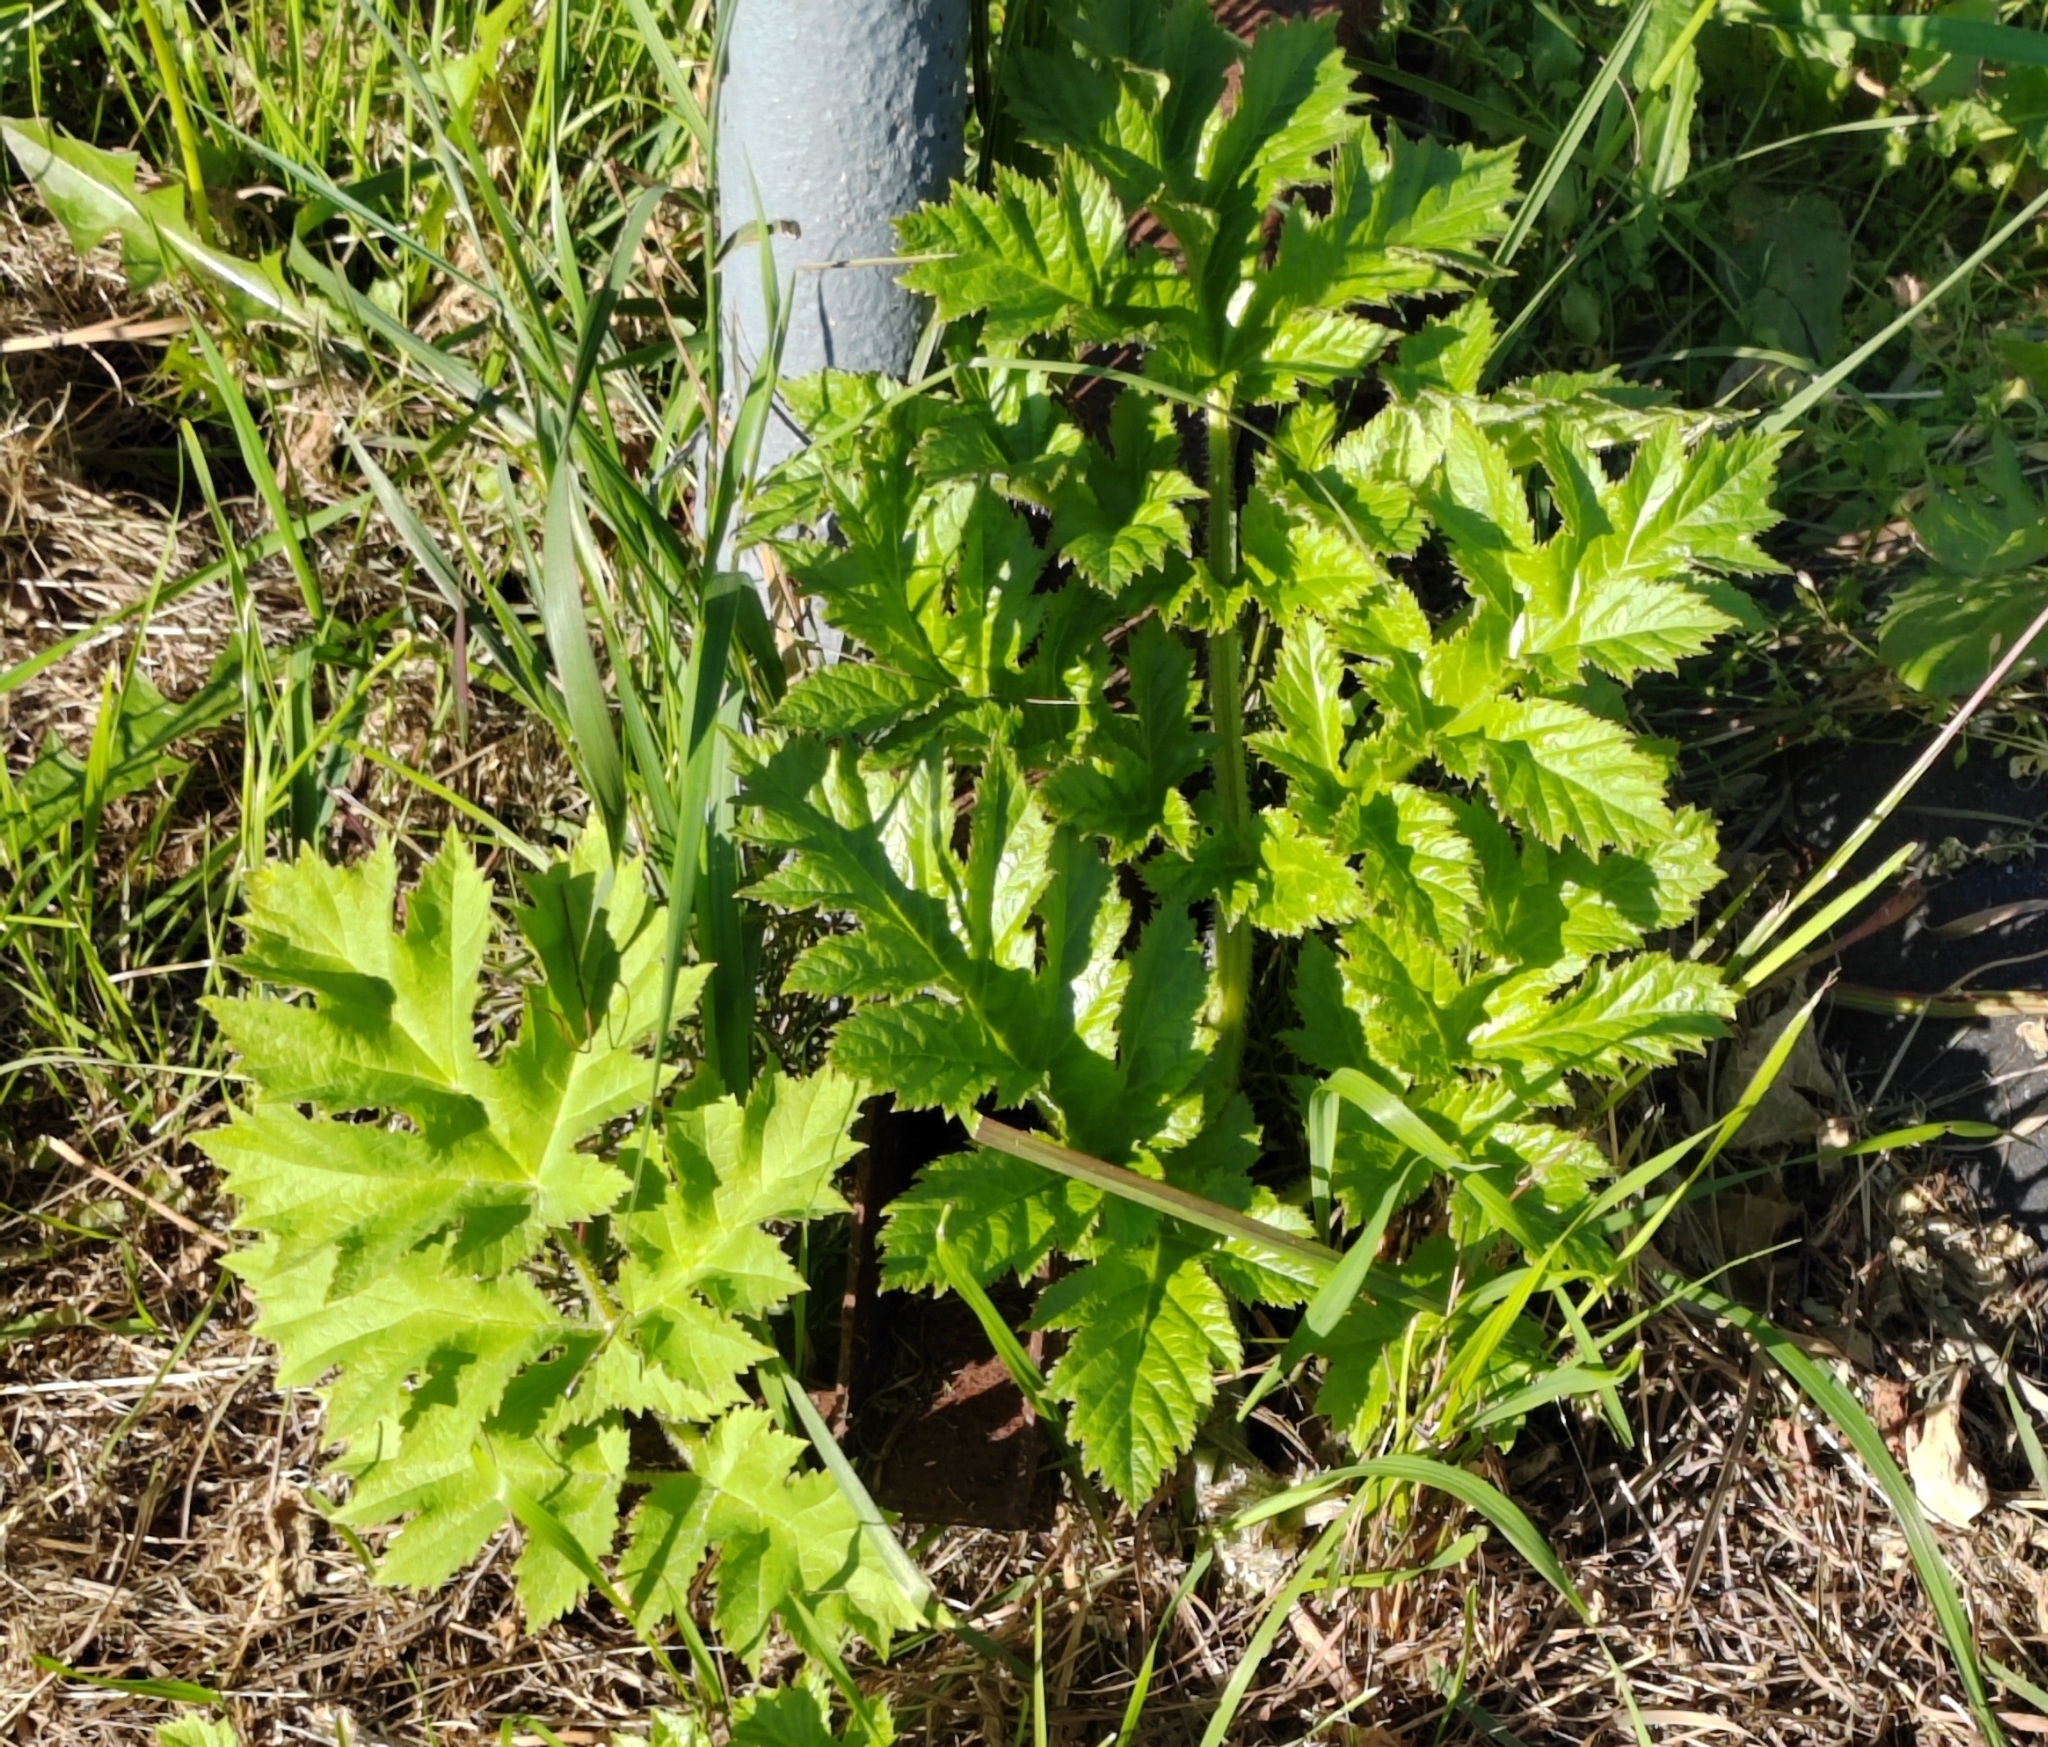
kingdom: Plantae
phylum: Tracheophyta
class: Magnoliopsida
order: Apiales
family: Apiaceae
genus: Heracleum
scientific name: Heracleum sphondylium
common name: Hogweed
